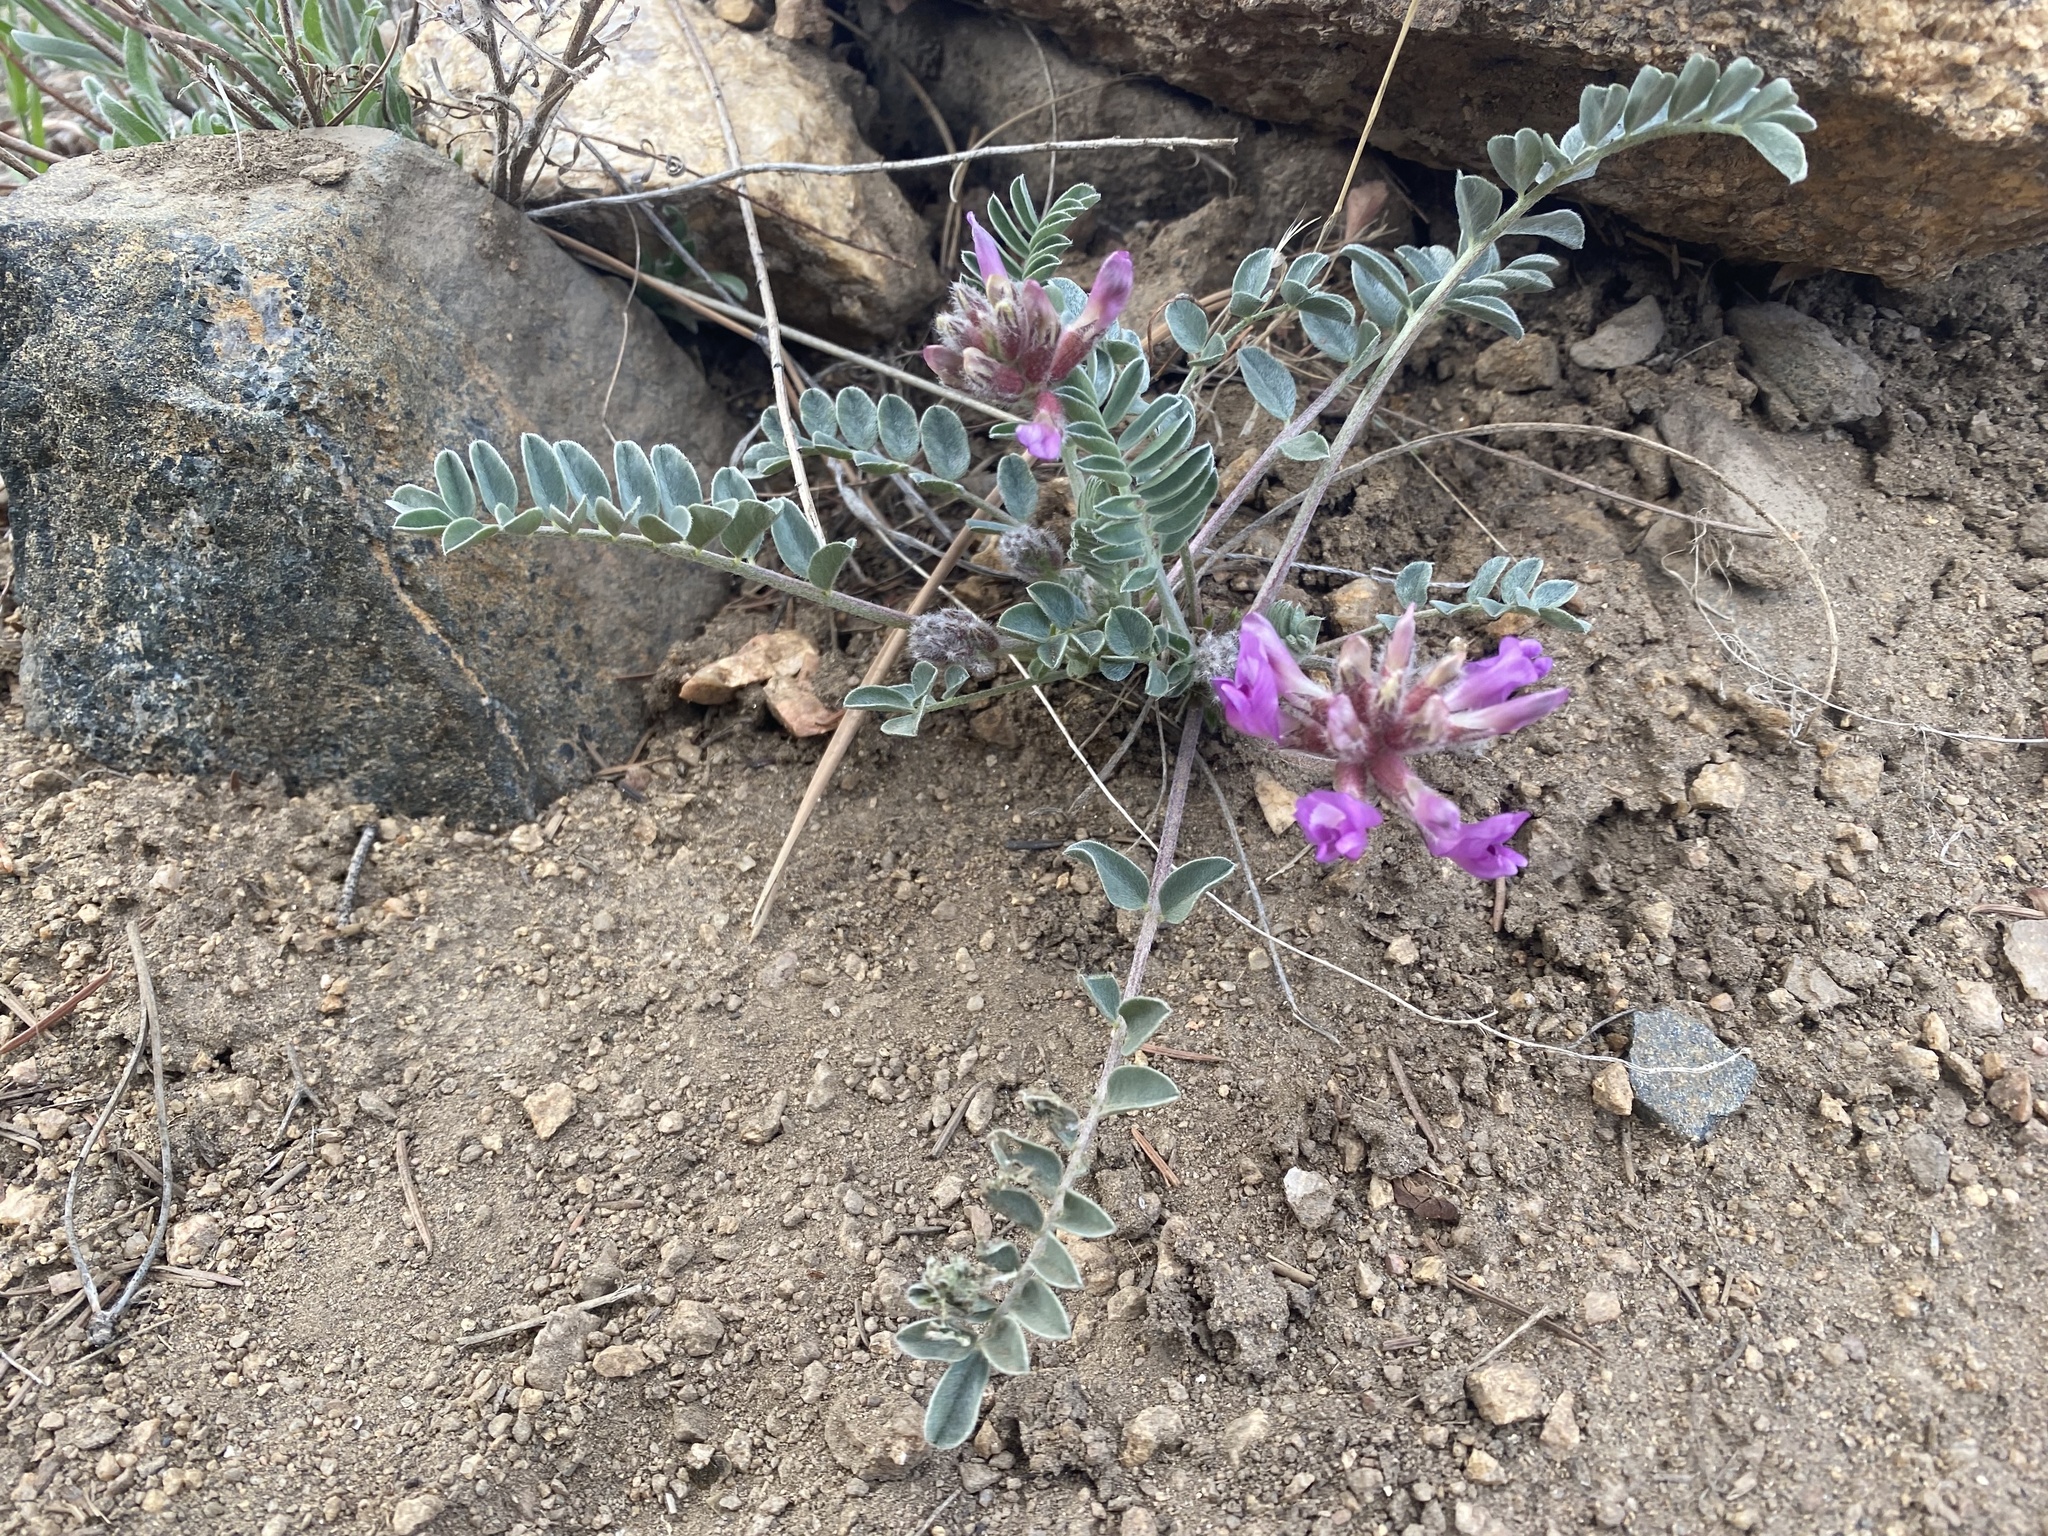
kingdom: Plantae
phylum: Tracheophyta
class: Magnoliopsida
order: Fabales
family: Fabaceae
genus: Astragalus
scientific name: Astragalus shortianus
